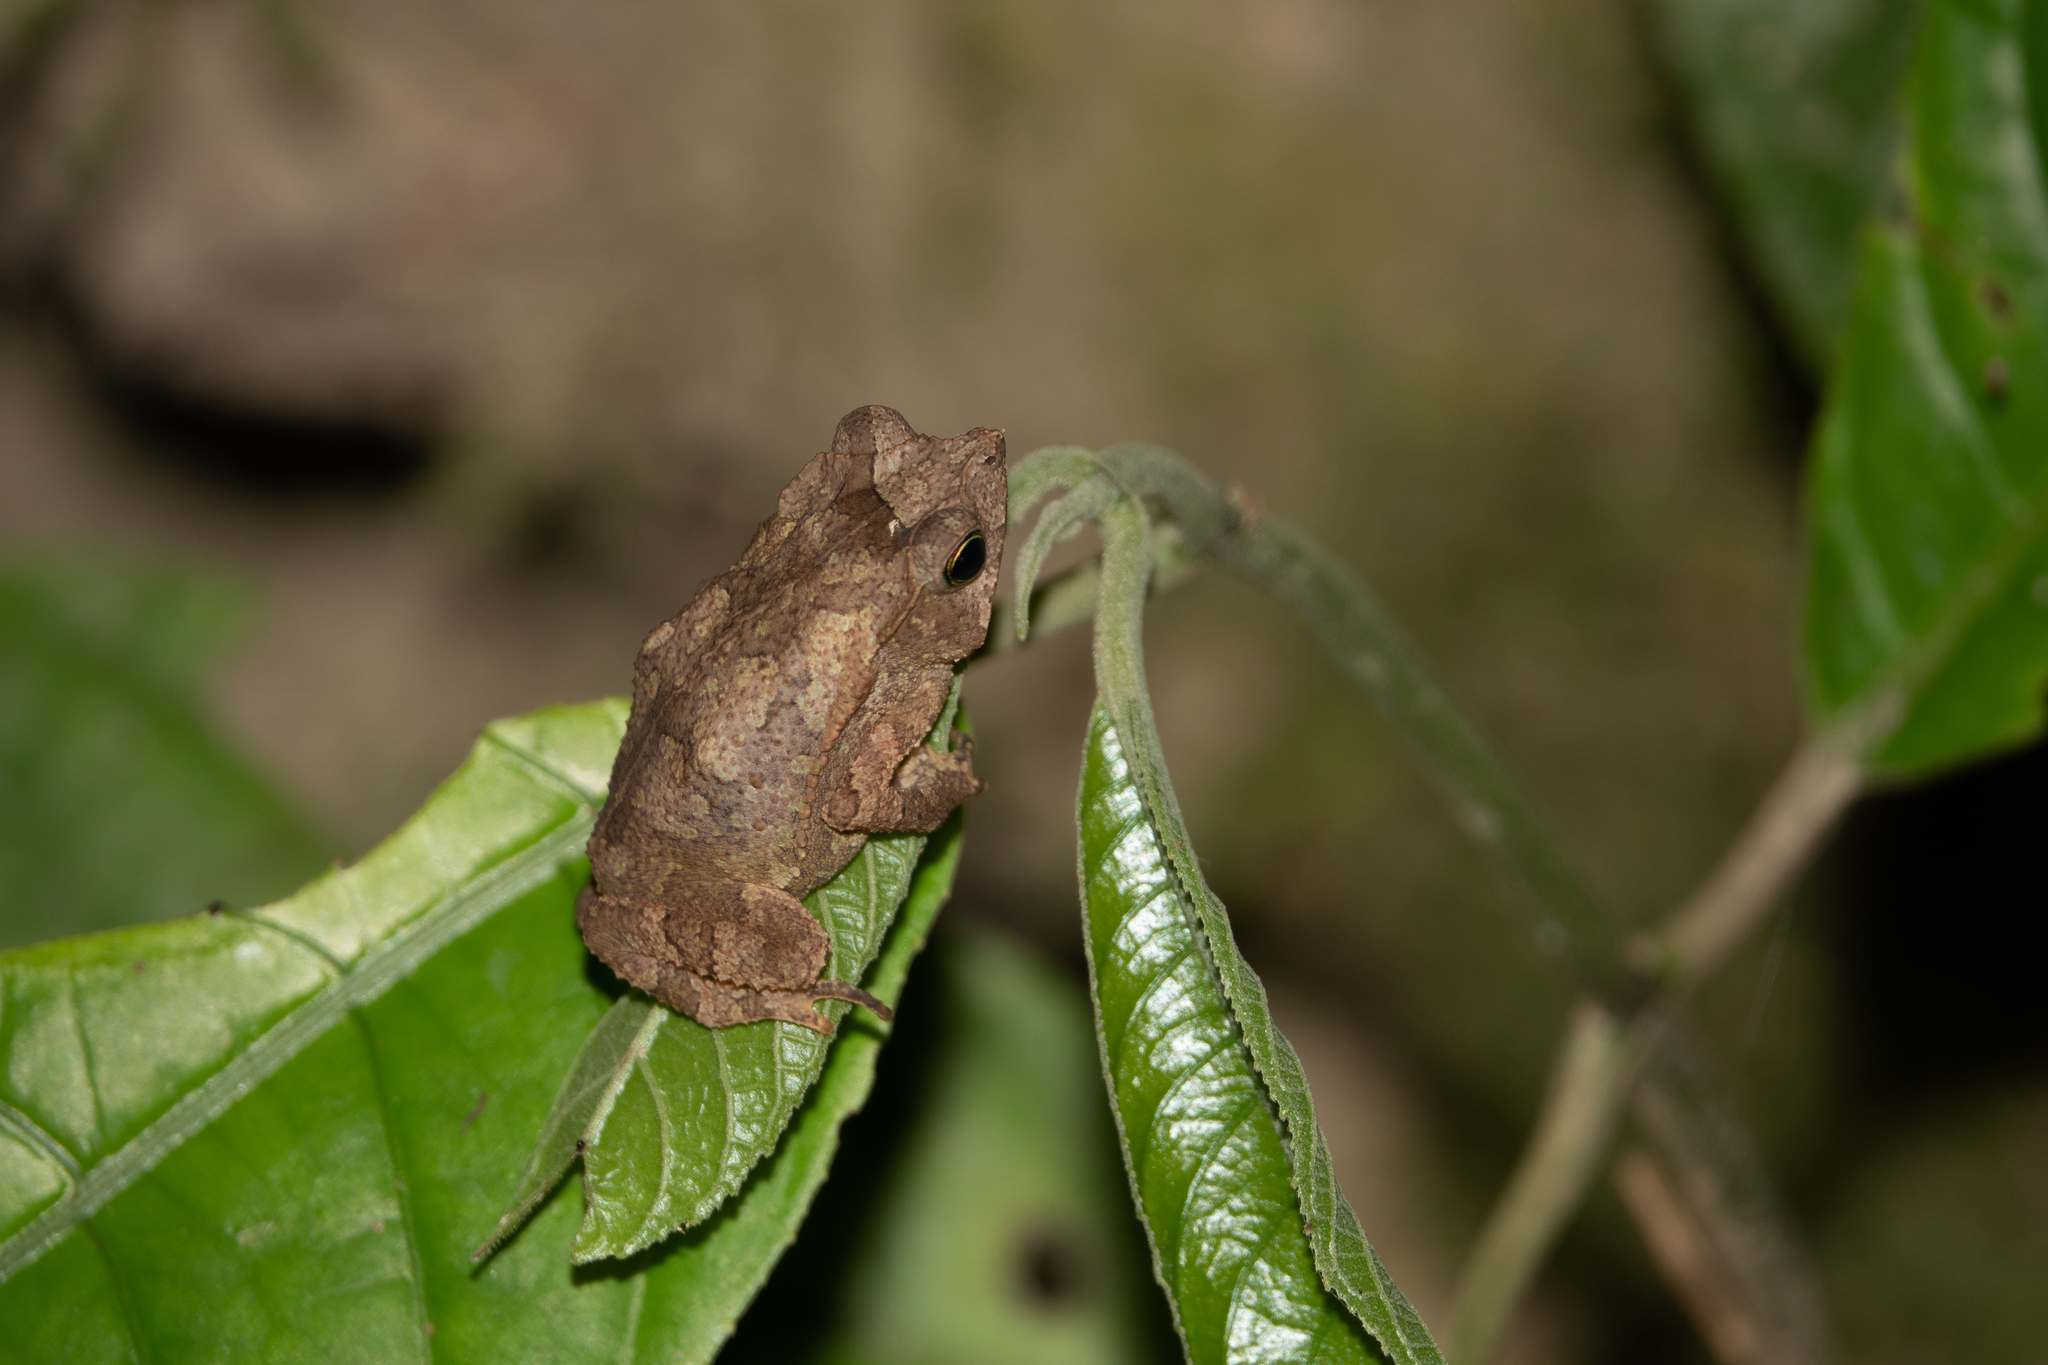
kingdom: Animalia
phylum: Chordata
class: Amphibia
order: Anura
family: Bufonidae
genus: Rhinella
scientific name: Rhinella margaritifera
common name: Mitred toad
